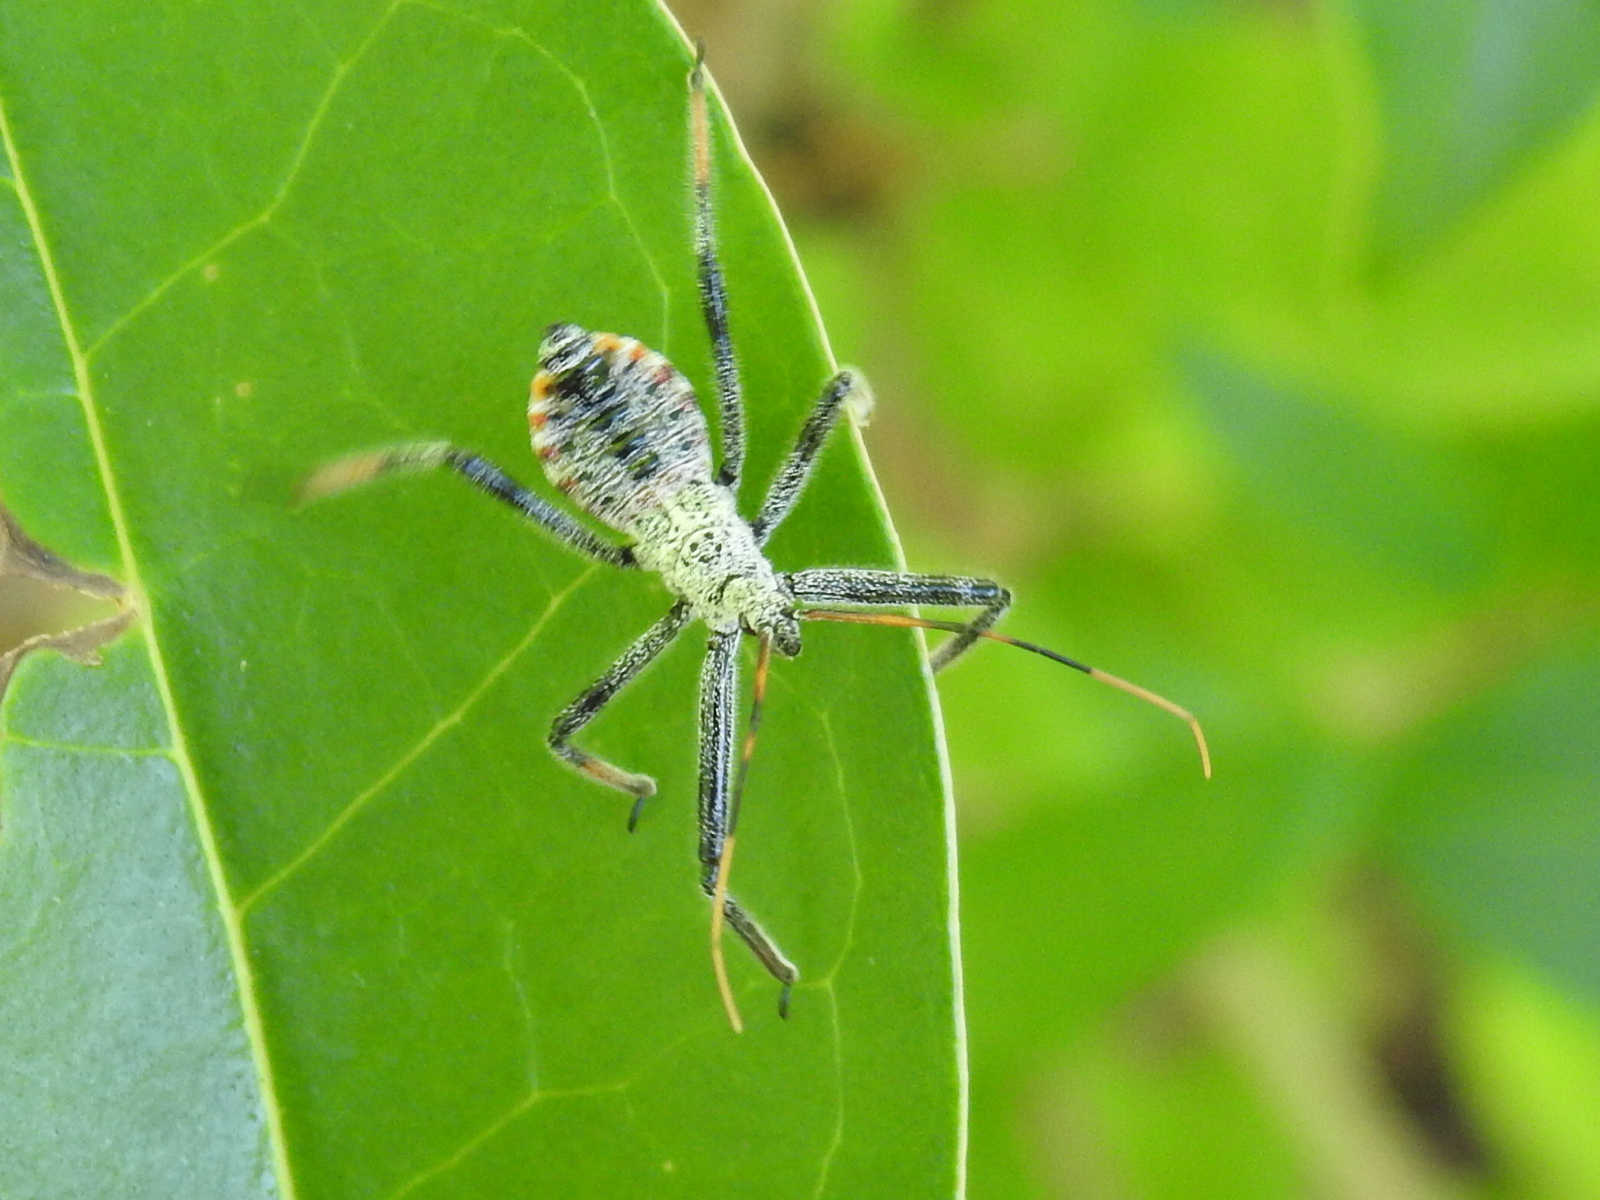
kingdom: Animalia
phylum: Arthropoda
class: Insecta
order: Hemiptera
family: Reduviidae
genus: Arilus
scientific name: Arilus cristatus
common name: North american wheel bug
